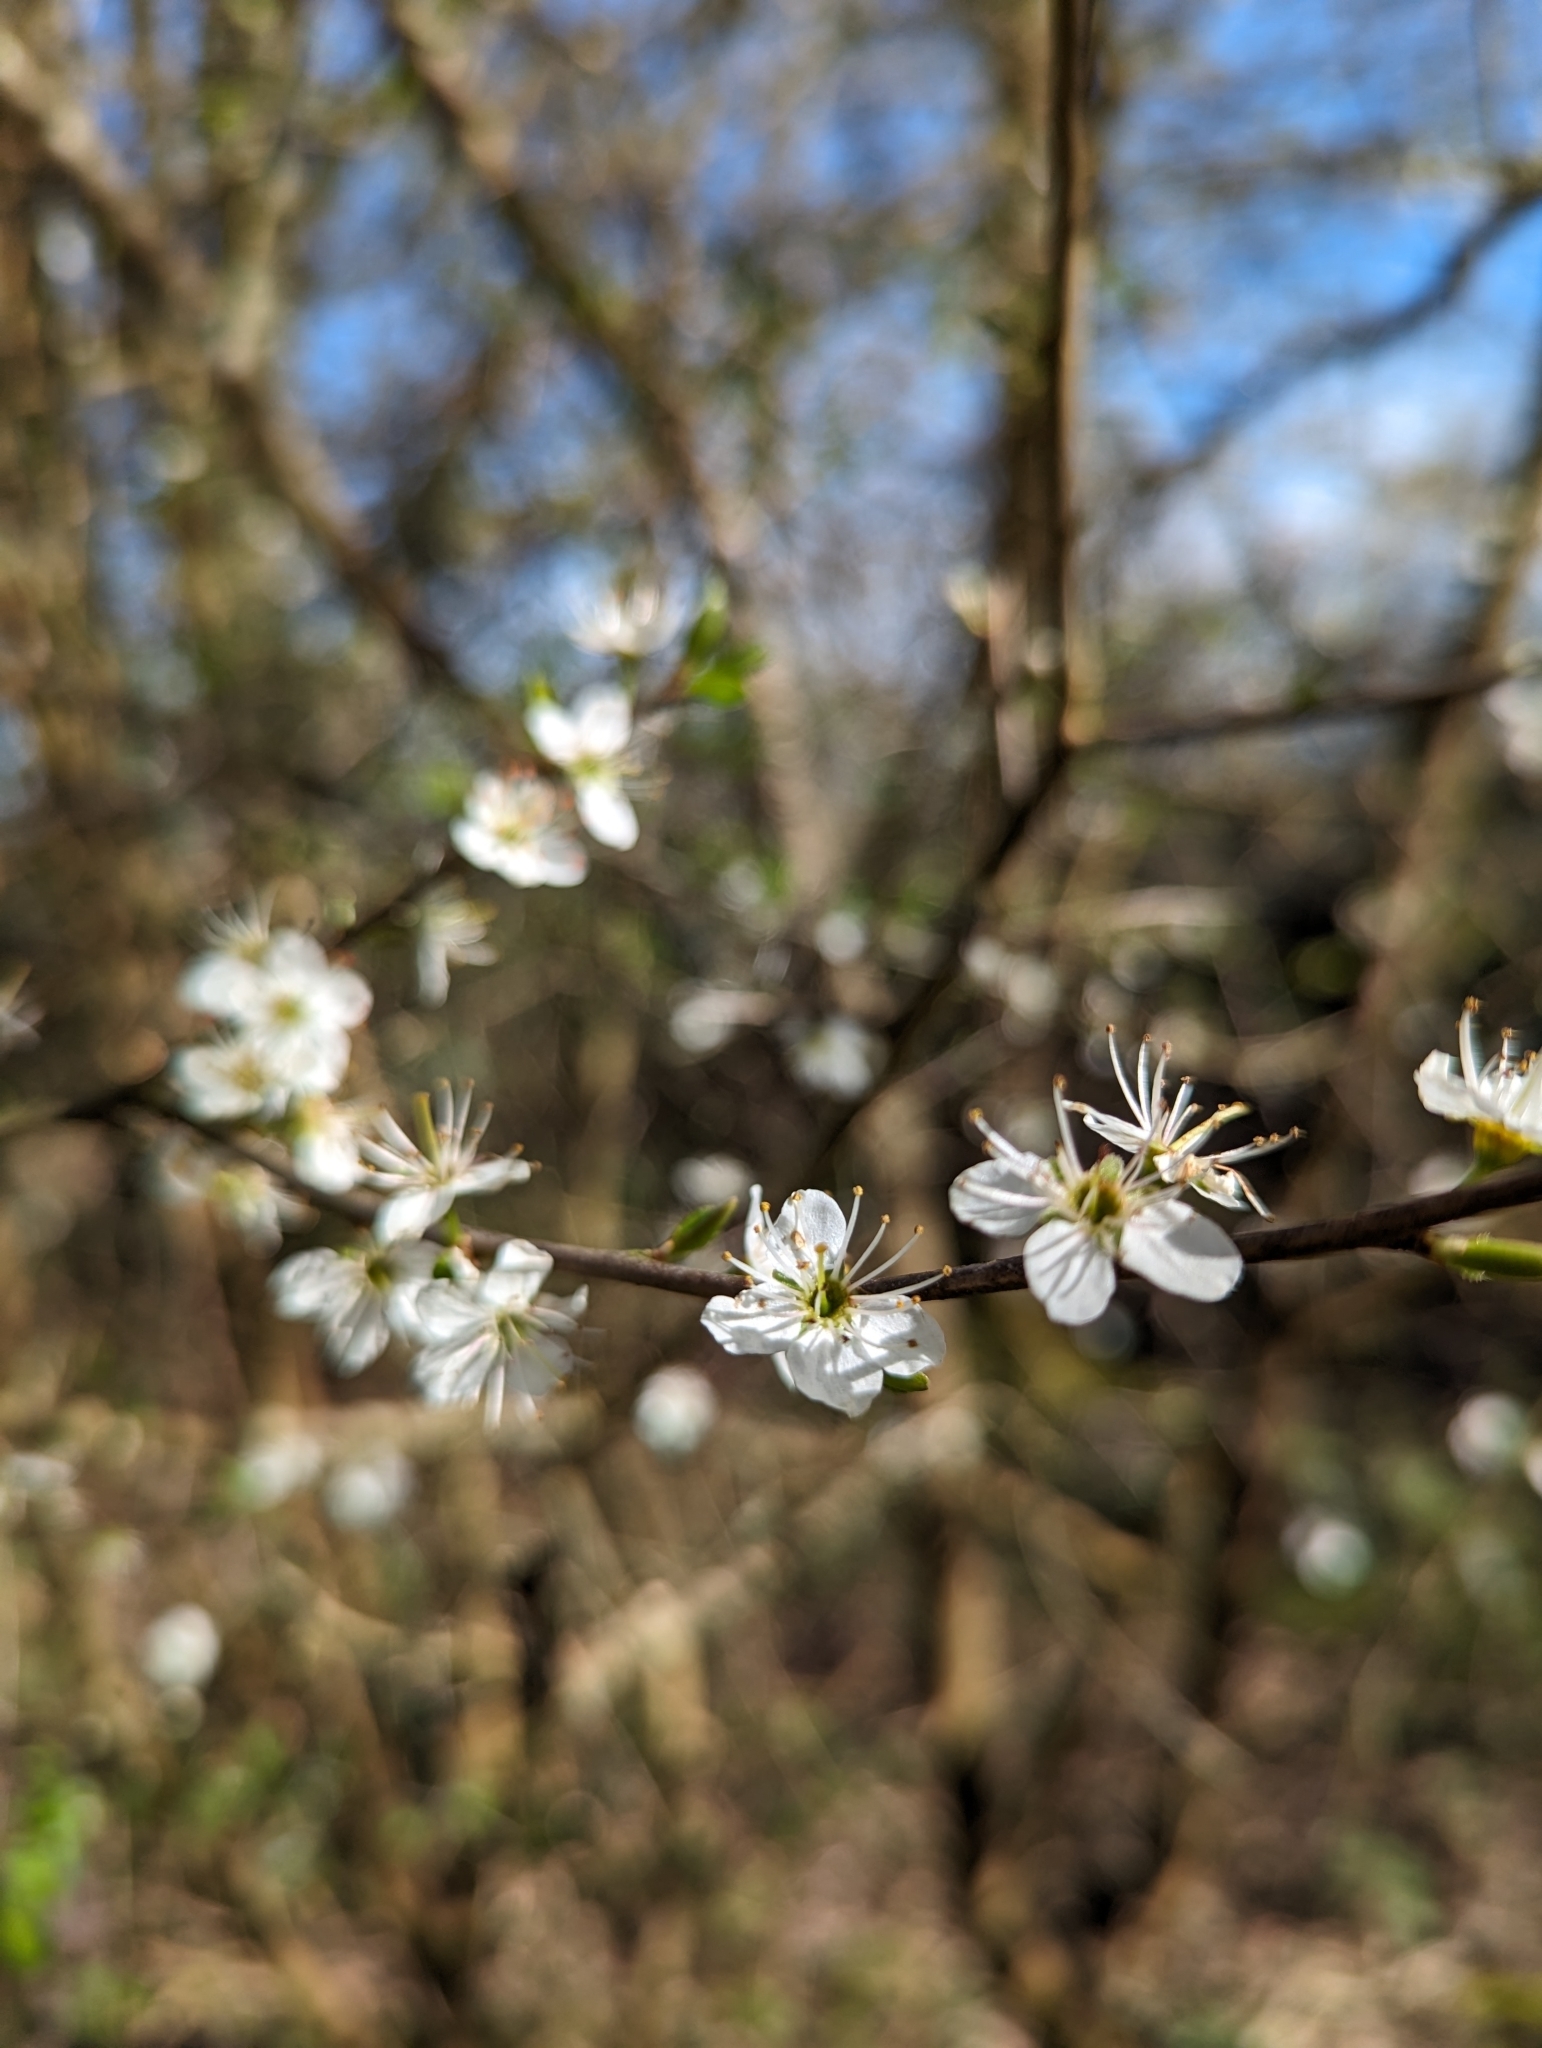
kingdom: Plantae
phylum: Tracheophyta
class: Magnoliopsida
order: Rosales
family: Rosaceae
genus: Prunus
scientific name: Prunus spinosa
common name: Blackthorn
